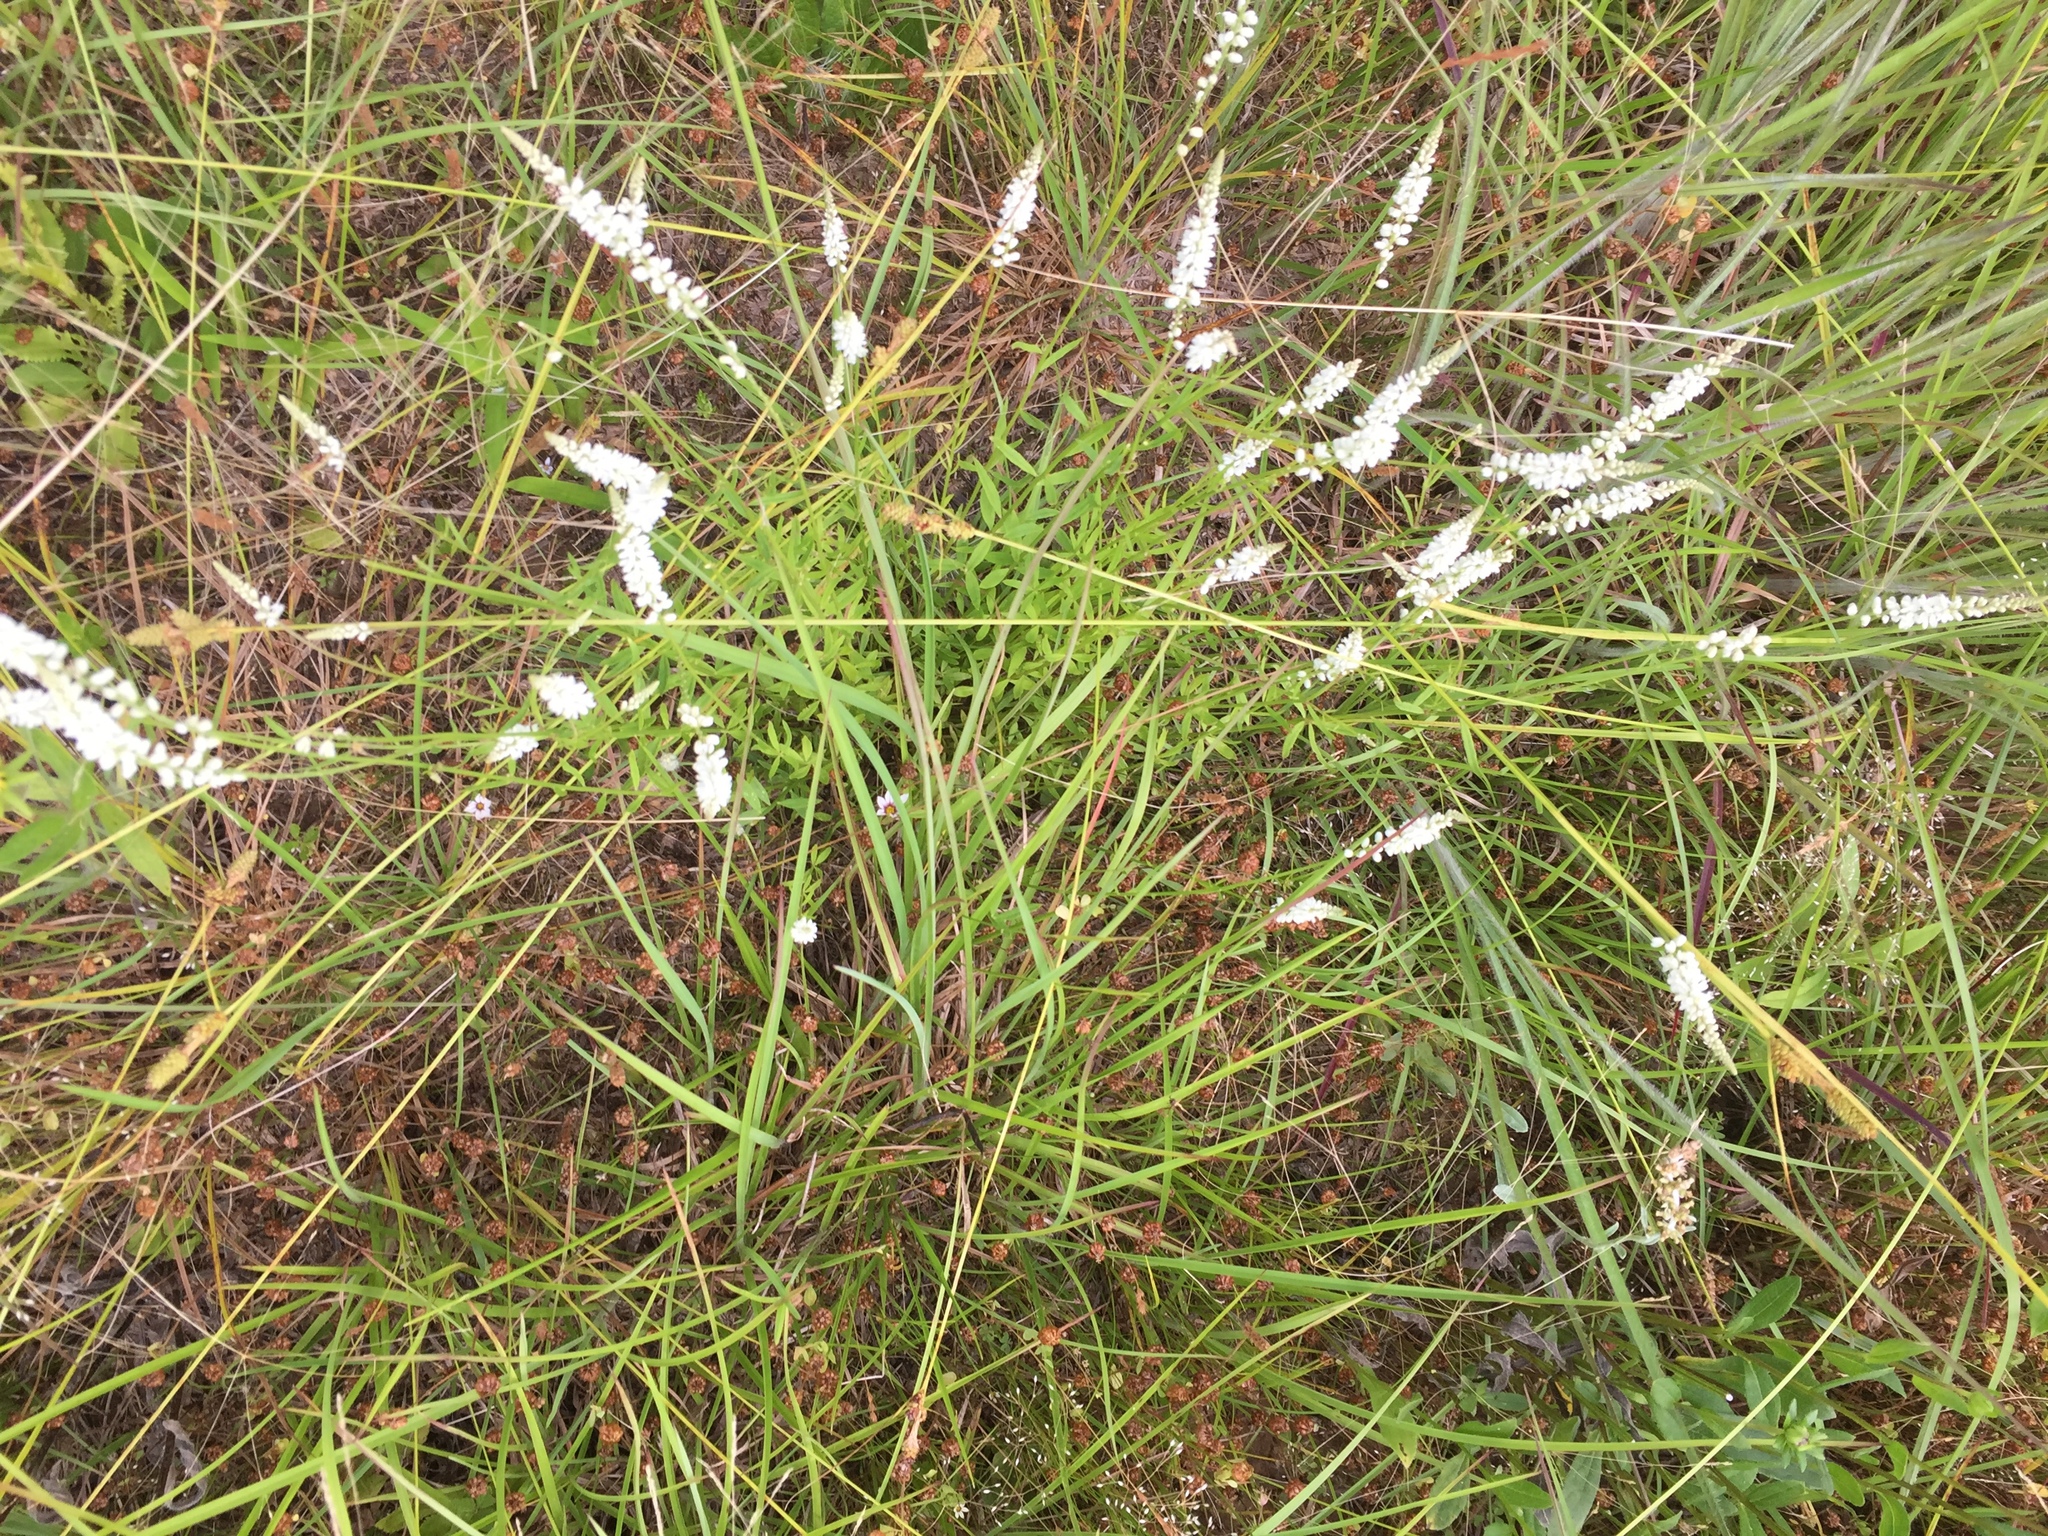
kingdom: Plantae
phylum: Tracheophyta
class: Magnoliopsida
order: Fabales
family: Polygalaceae
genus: Polygala
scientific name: Polygala boykinii
